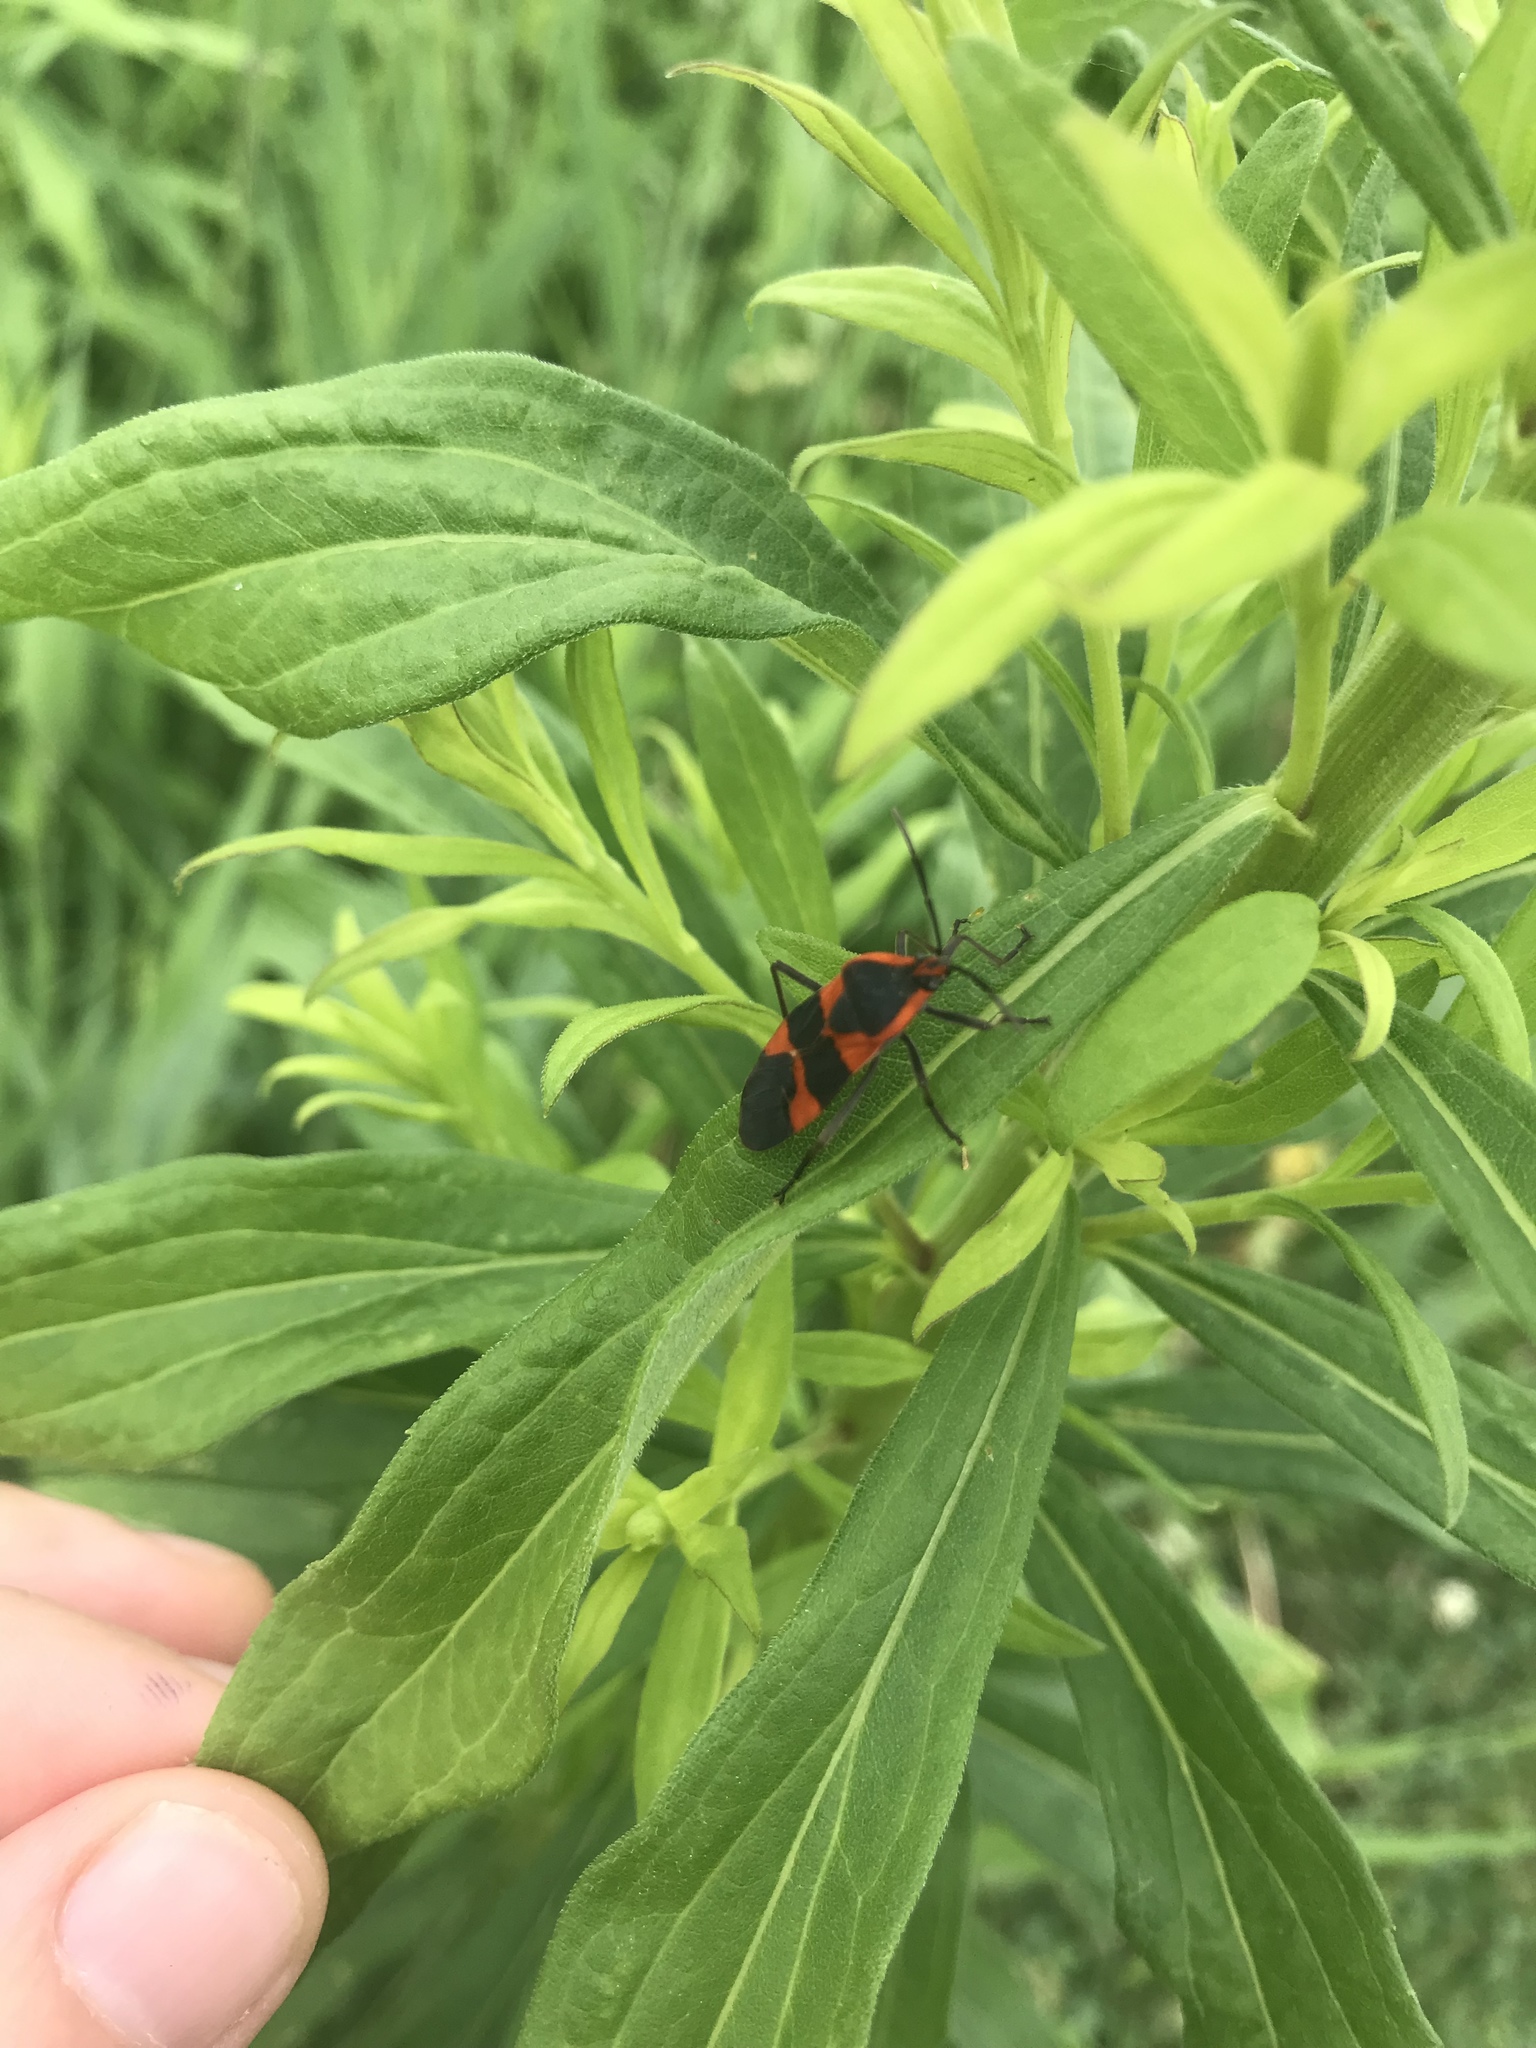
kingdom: Animalia
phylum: Arthropoda
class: Insecta
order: Hemiptera
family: Lygaeidae
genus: Oncopeltus
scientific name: Oncopeltus fasciatus
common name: Large milkweed bug
